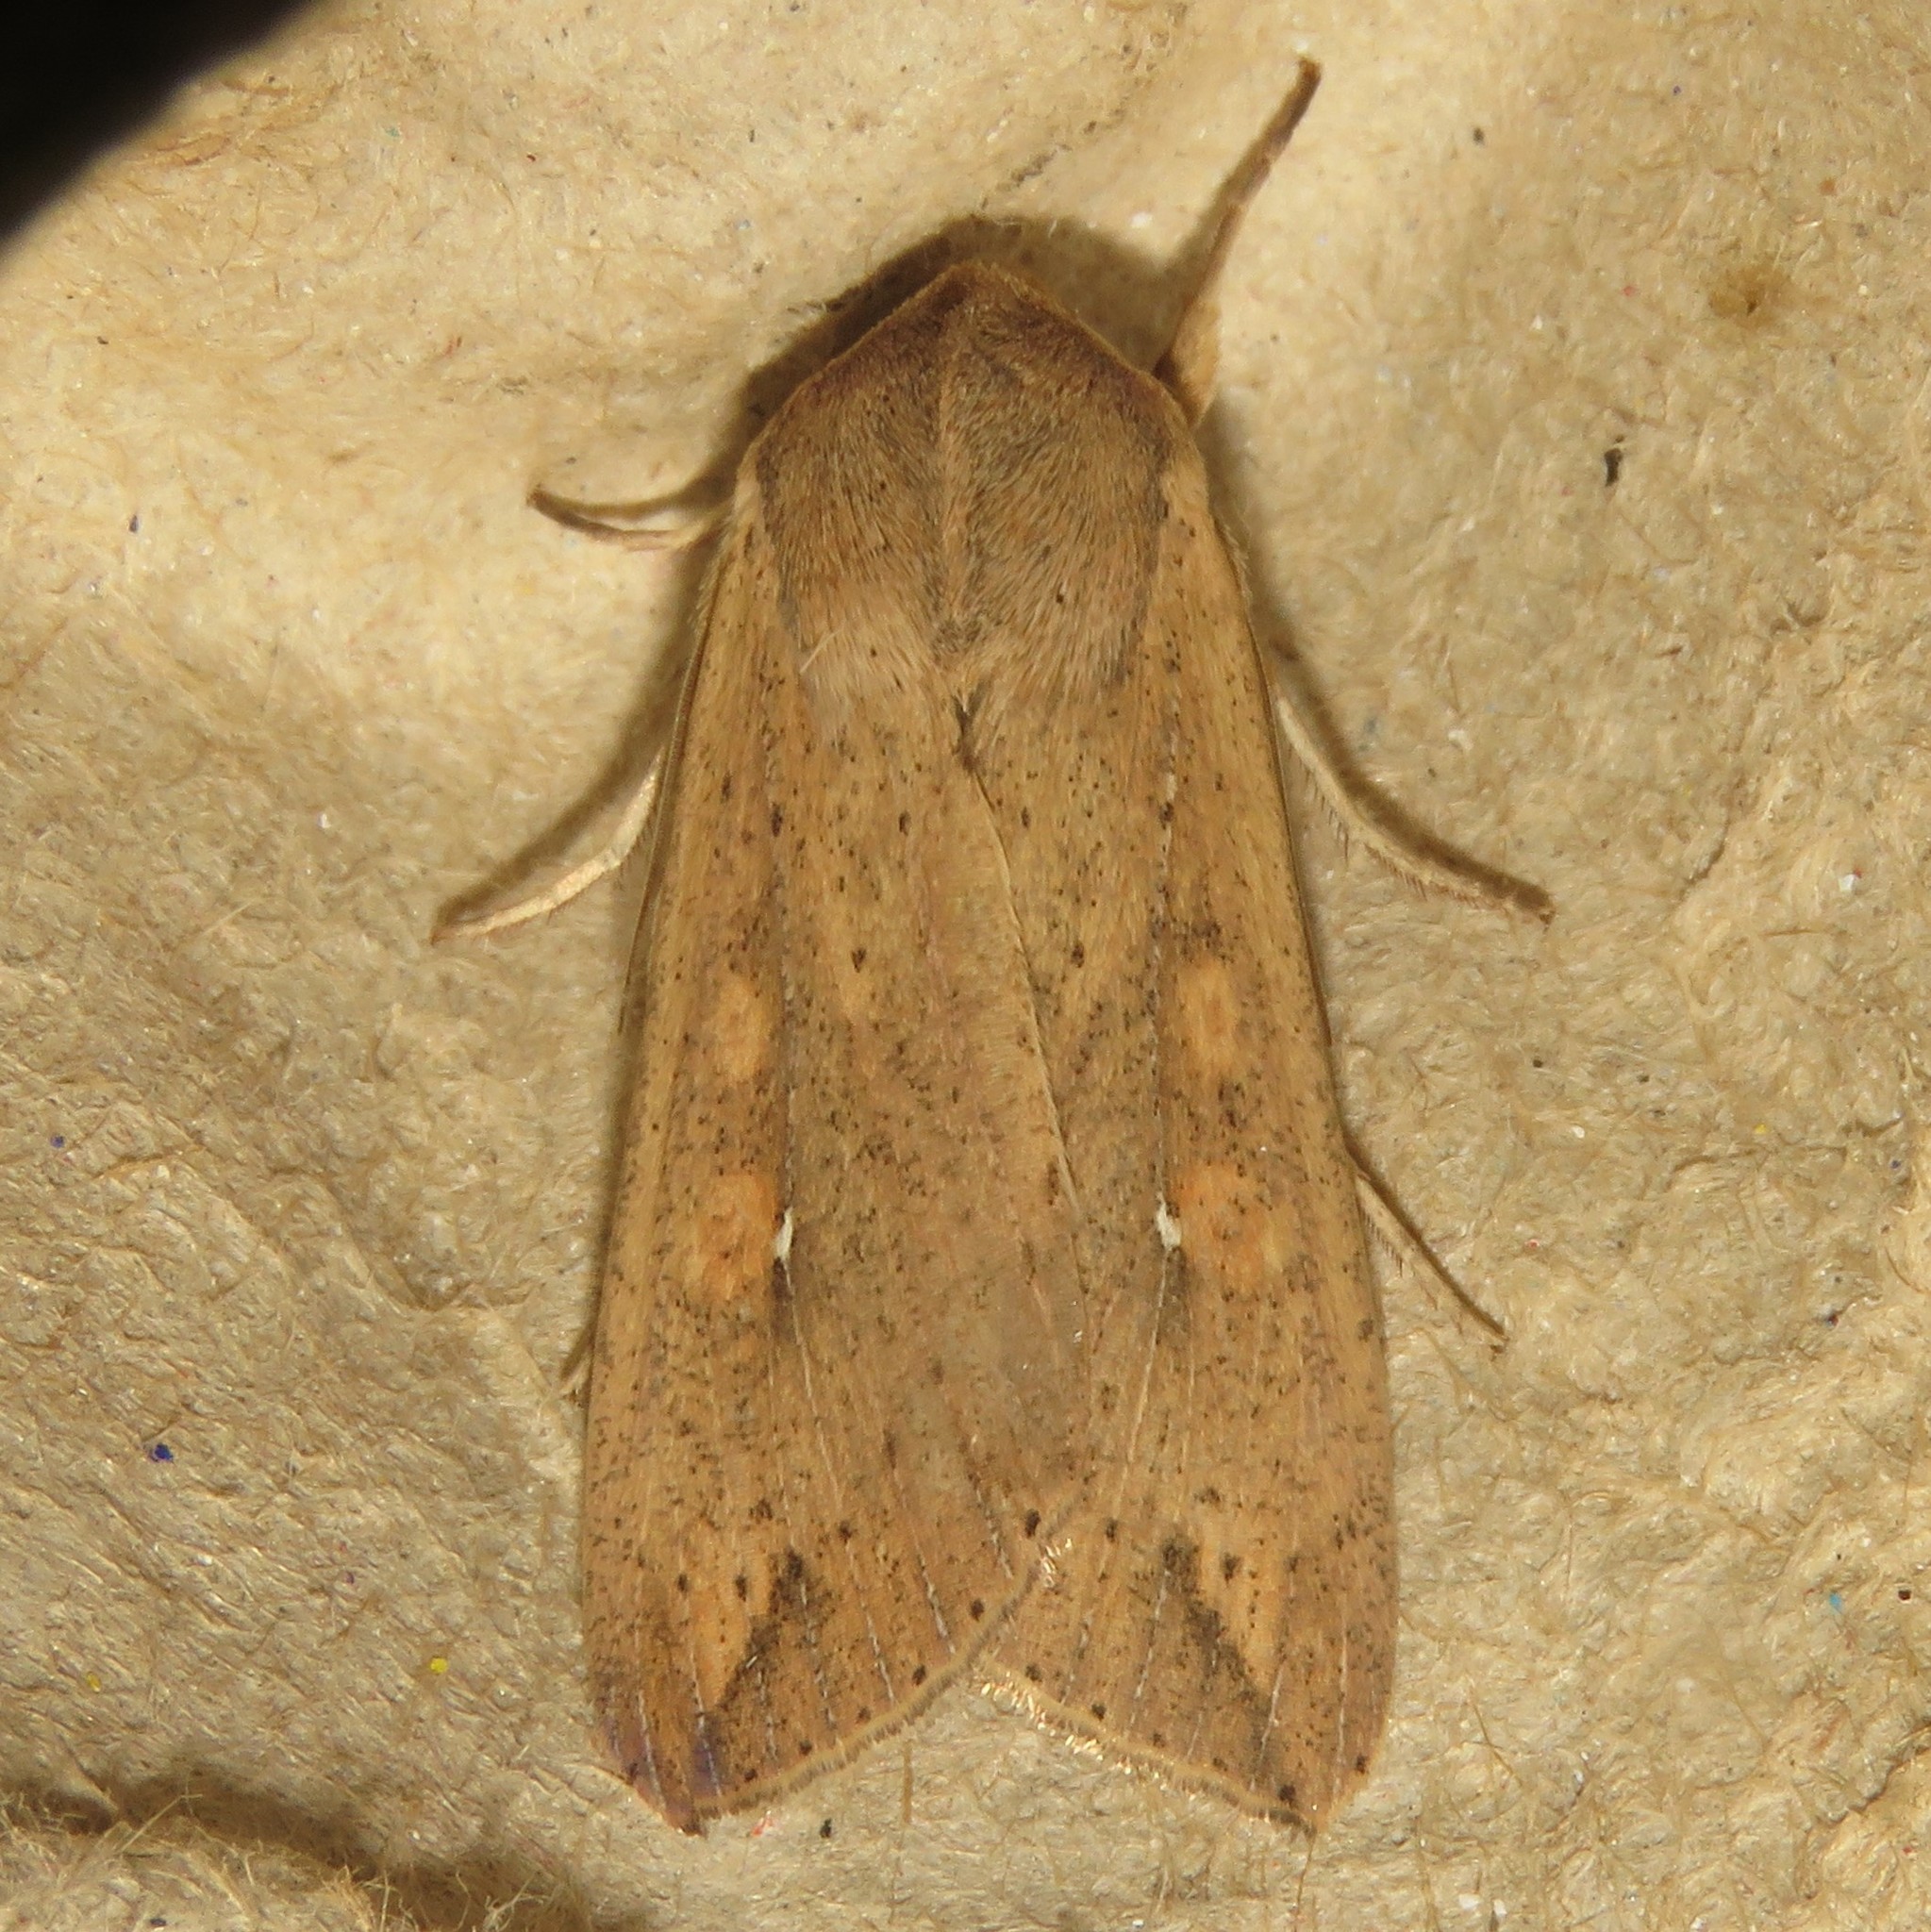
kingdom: Animalia
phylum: Arthropoda
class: Insecta
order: Lepidoptera
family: Noctuidae
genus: Mythimna
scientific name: Mythimna unipuncta
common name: White-speck
